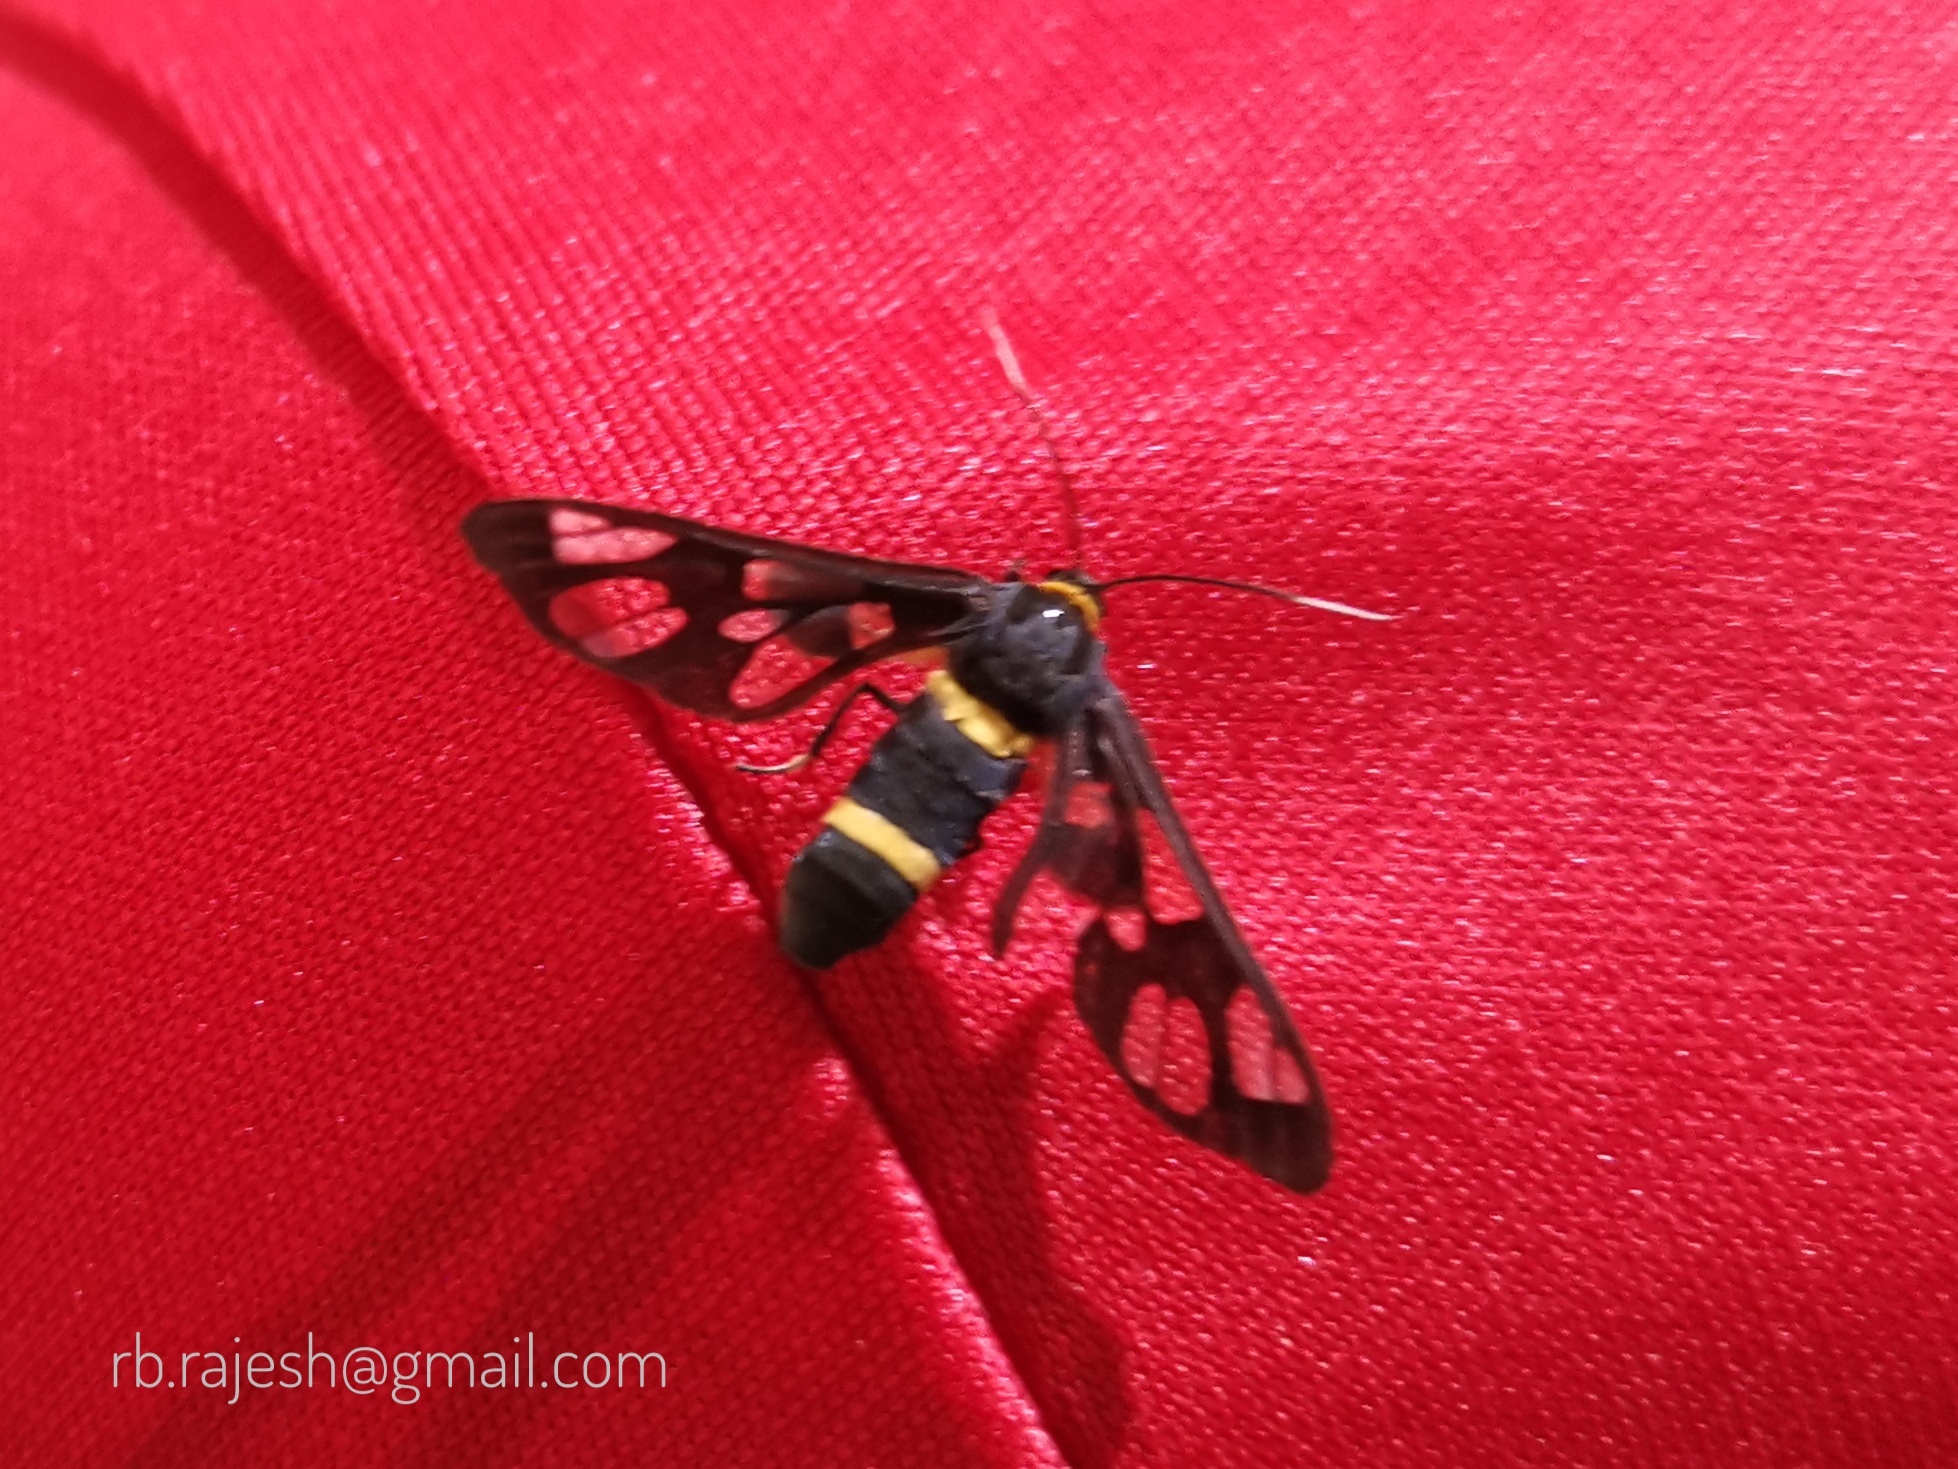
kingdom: Animalia
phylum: Arthropoda
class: Insecta
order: Lepidoptera
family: Erebidae
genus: Syntomoides
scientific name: Syntomoides imaon
